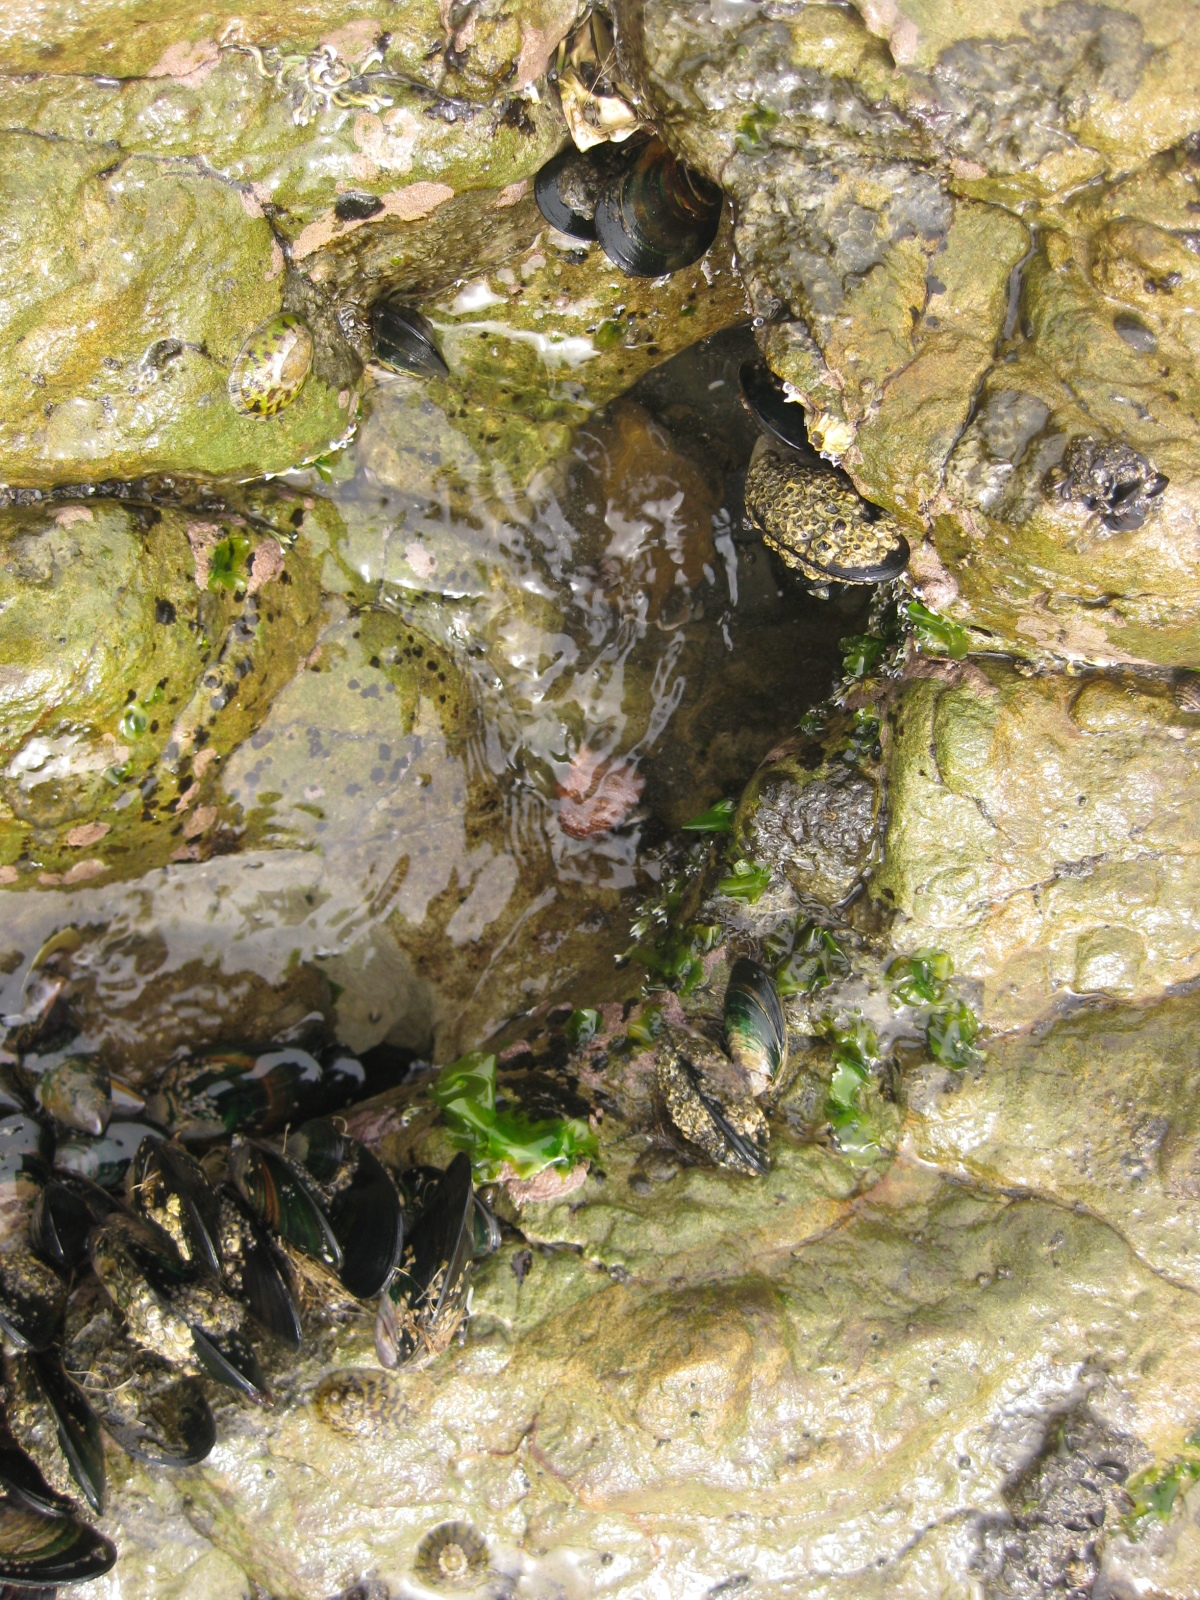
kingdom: Animalia
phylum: Mollusca
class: Gastropoda
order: Trochida
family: Calliostomatidae
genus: Maurea
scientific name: Maurea punctulata
